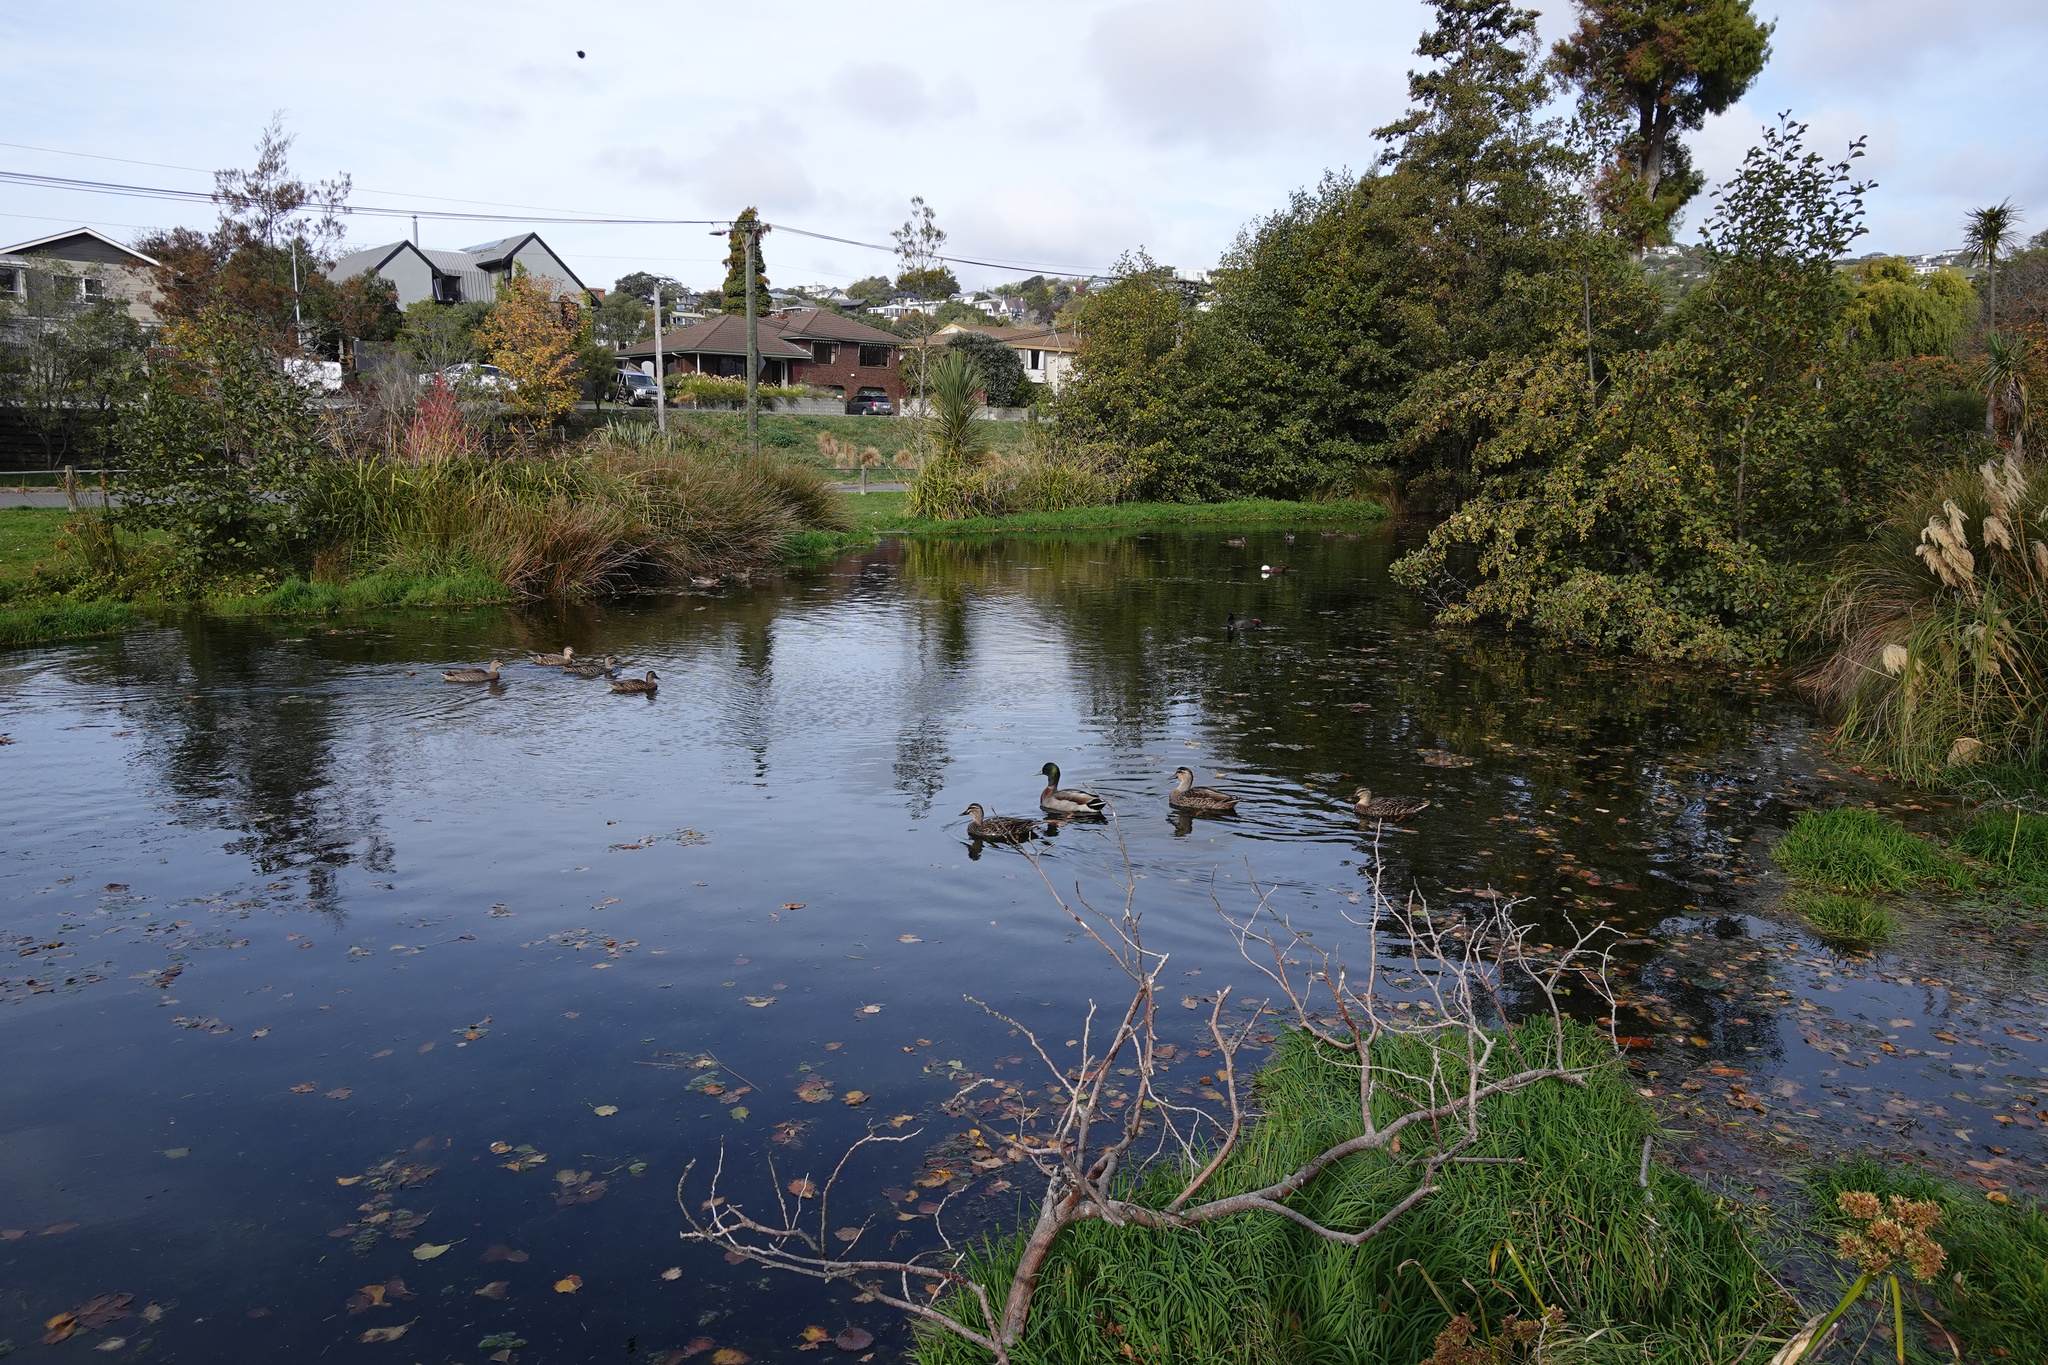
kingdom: Animalia
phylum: Chordata
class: Aves
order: Anseriformes
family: Anatidae
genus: Anas
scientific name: Anas
